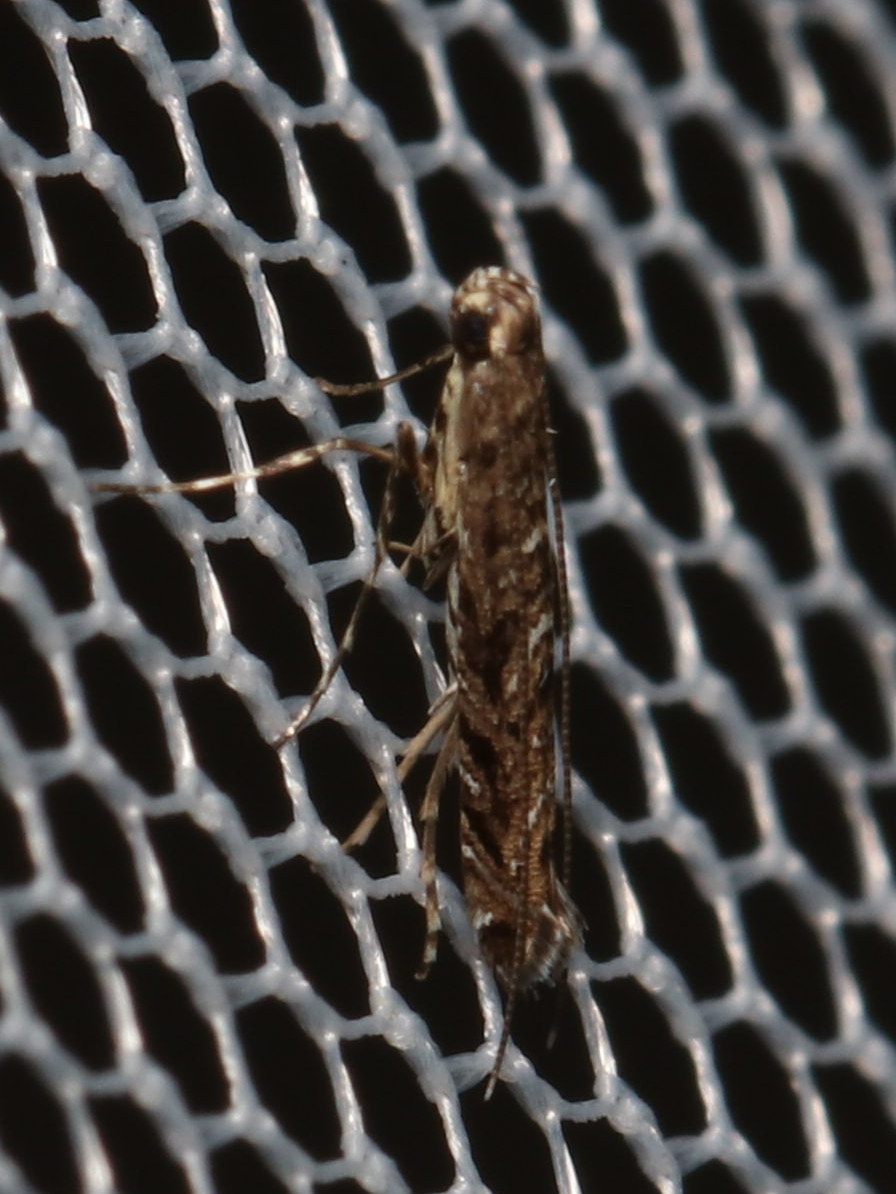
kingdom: Animalia
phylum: Arthropoda
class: Insecta
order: Lepidoptera
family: Gracillariidae
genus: Neurobathra
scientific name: Neurobathra strigifinitella
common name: Finite-channeled leafminer moth
